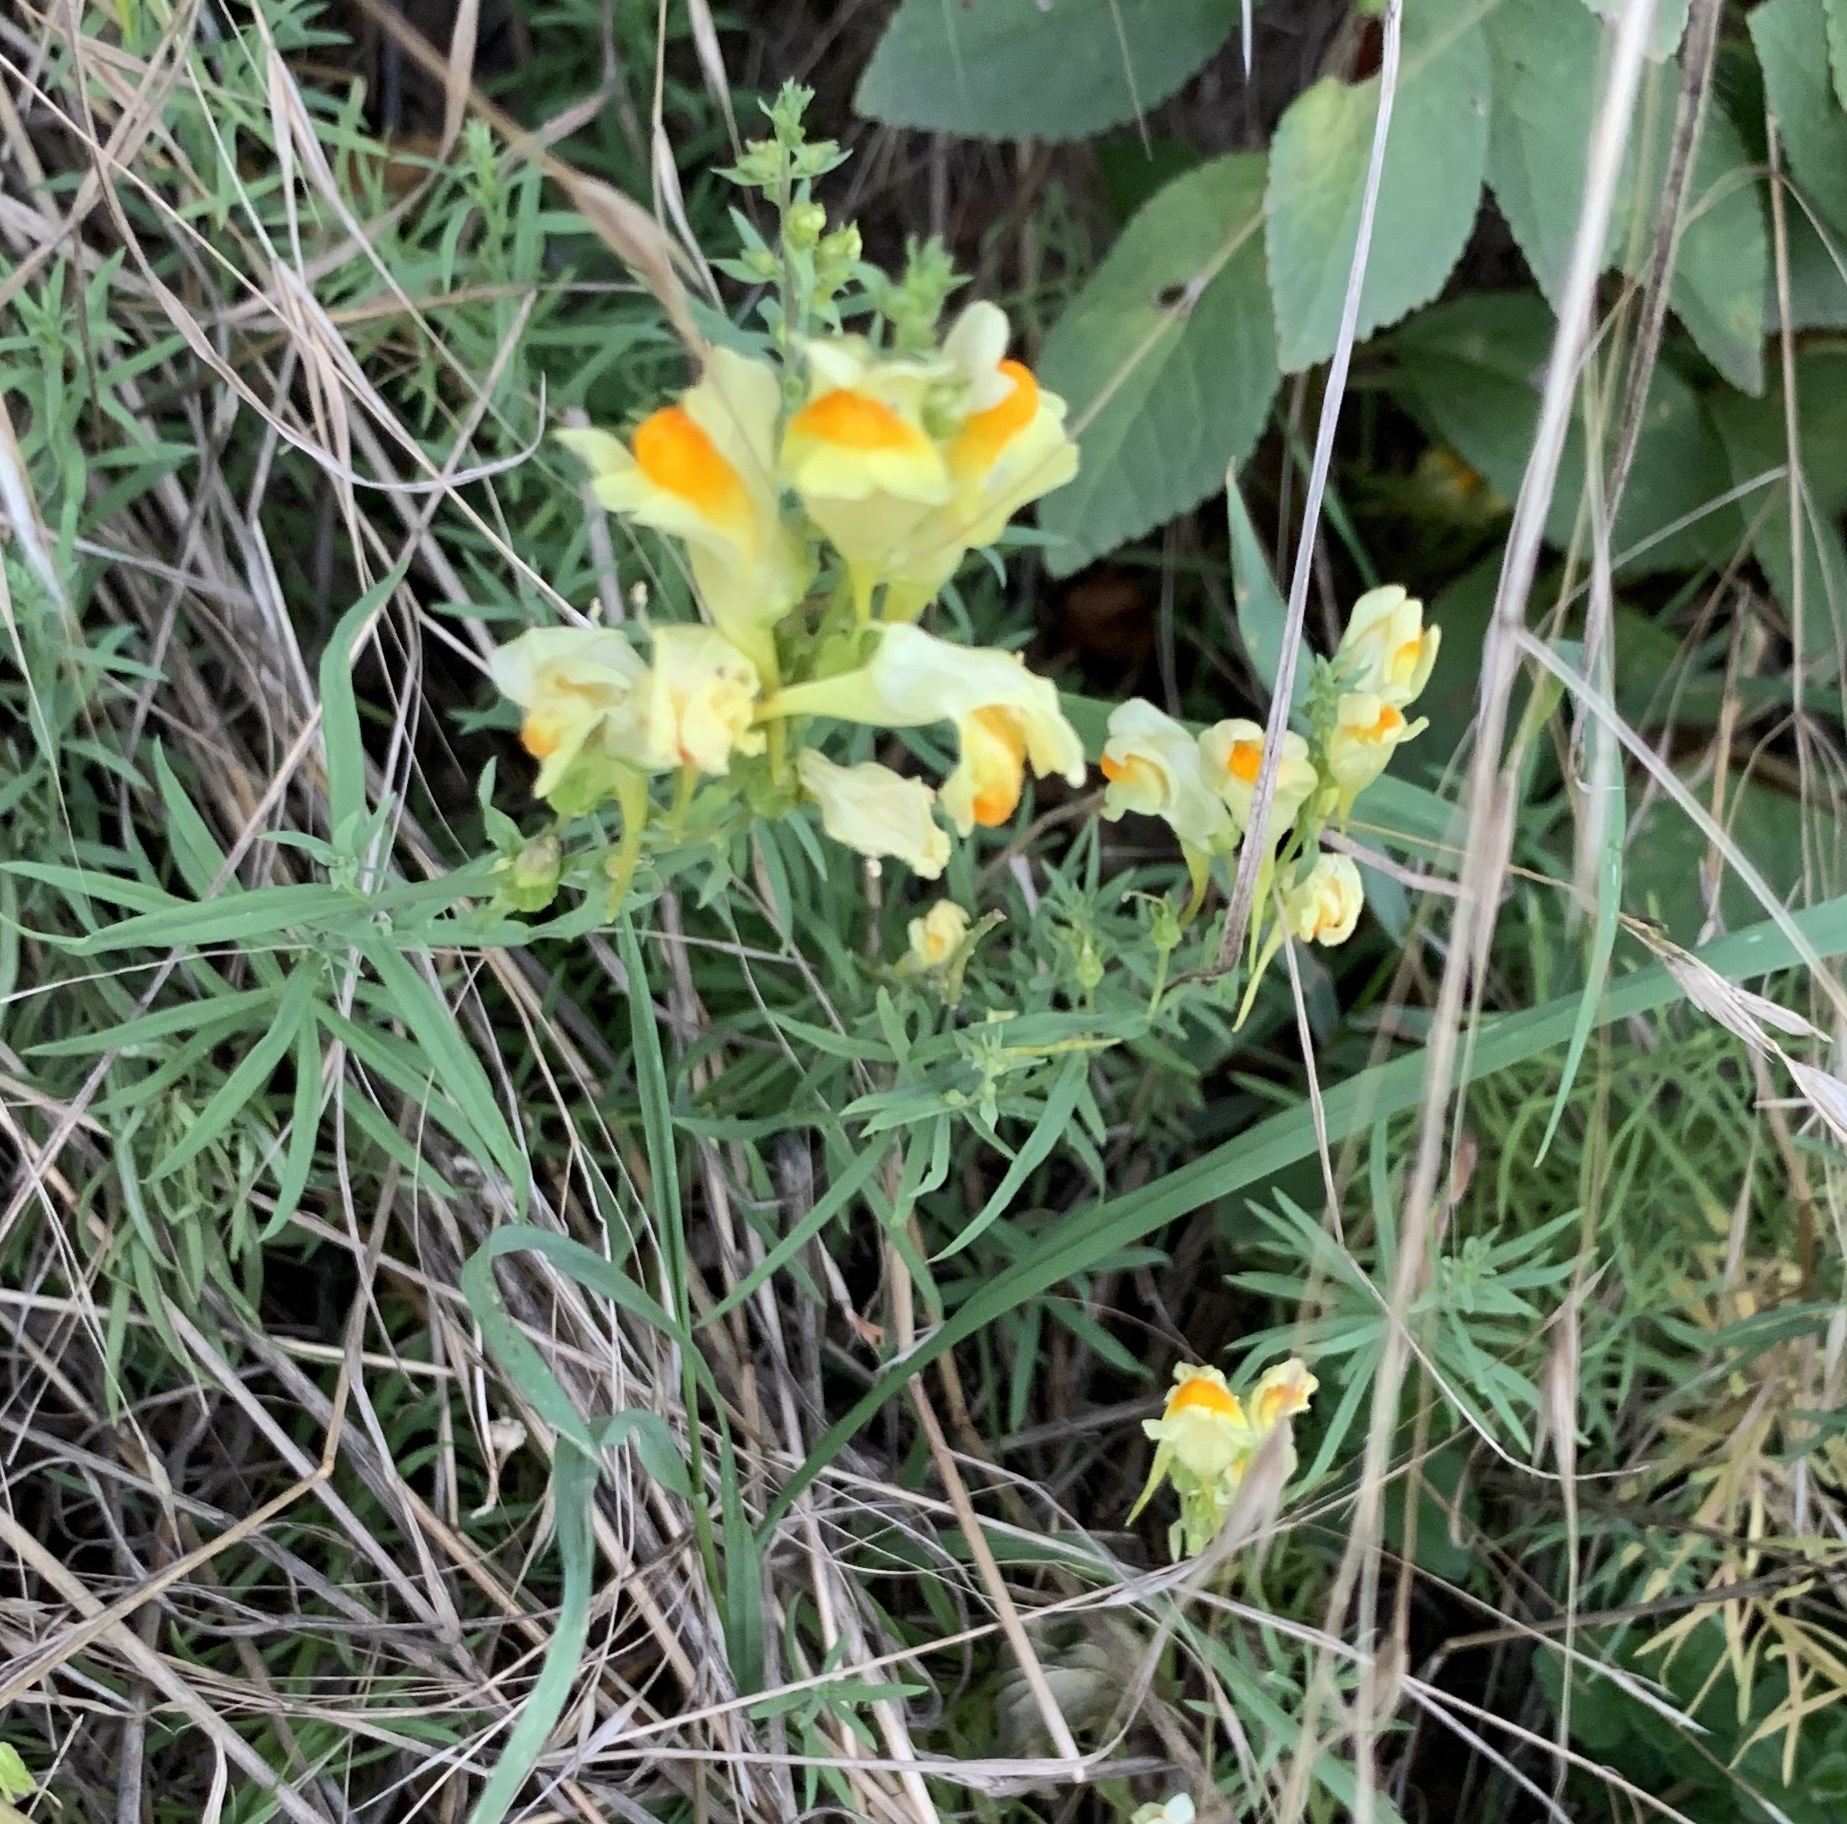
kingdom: Plantae
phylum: Tracheophyta
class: Magnoliopsida
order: Lamiales
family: Plantaginaceae
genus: Linaria
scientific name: Linaria vulgaris
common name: Butter and eggs
